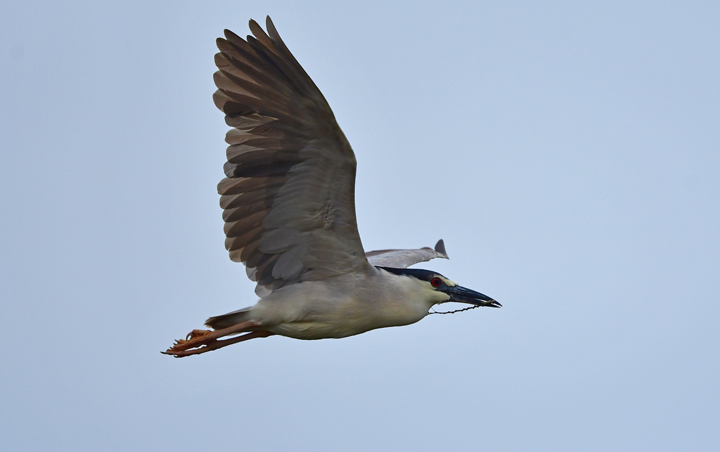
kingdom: Animalia
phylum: Chordata
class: Aves
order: Pelecaniformes
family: Ardeidae
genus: Nycticorax
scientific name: Nycticorax nycticorax
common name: Black-crowned night heron
